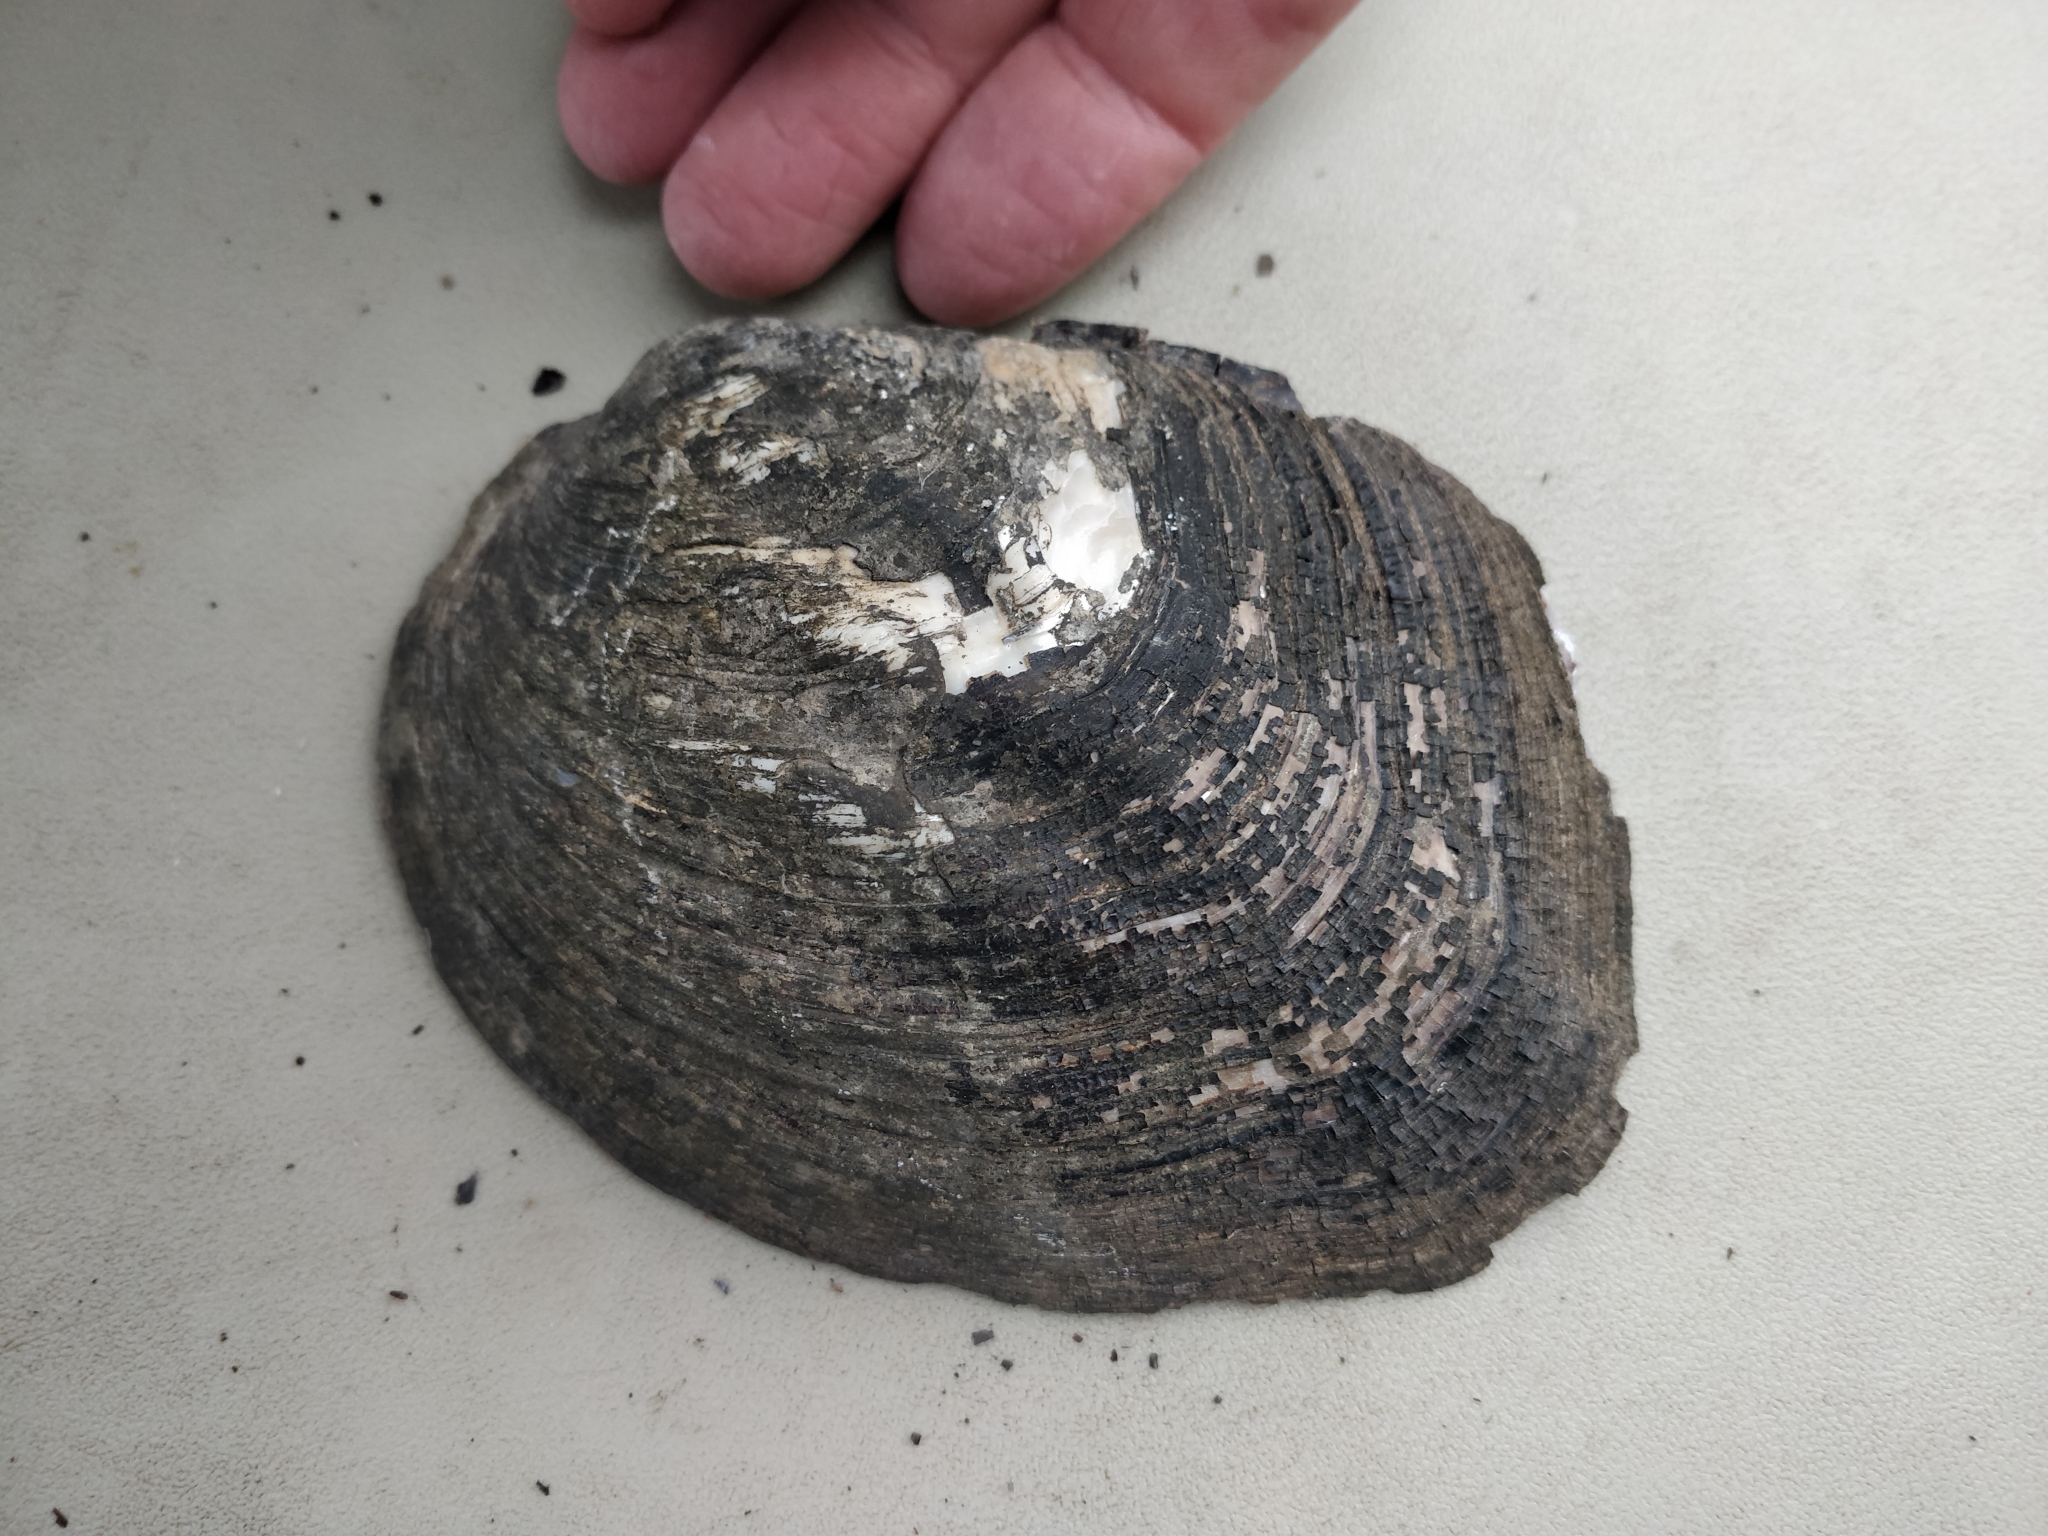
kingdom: Animalia
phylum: Mollusca
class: Bivalvia
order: Unionida
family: Unionidae
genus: Amblema
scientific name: Amblema plicata
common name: Threeridge
